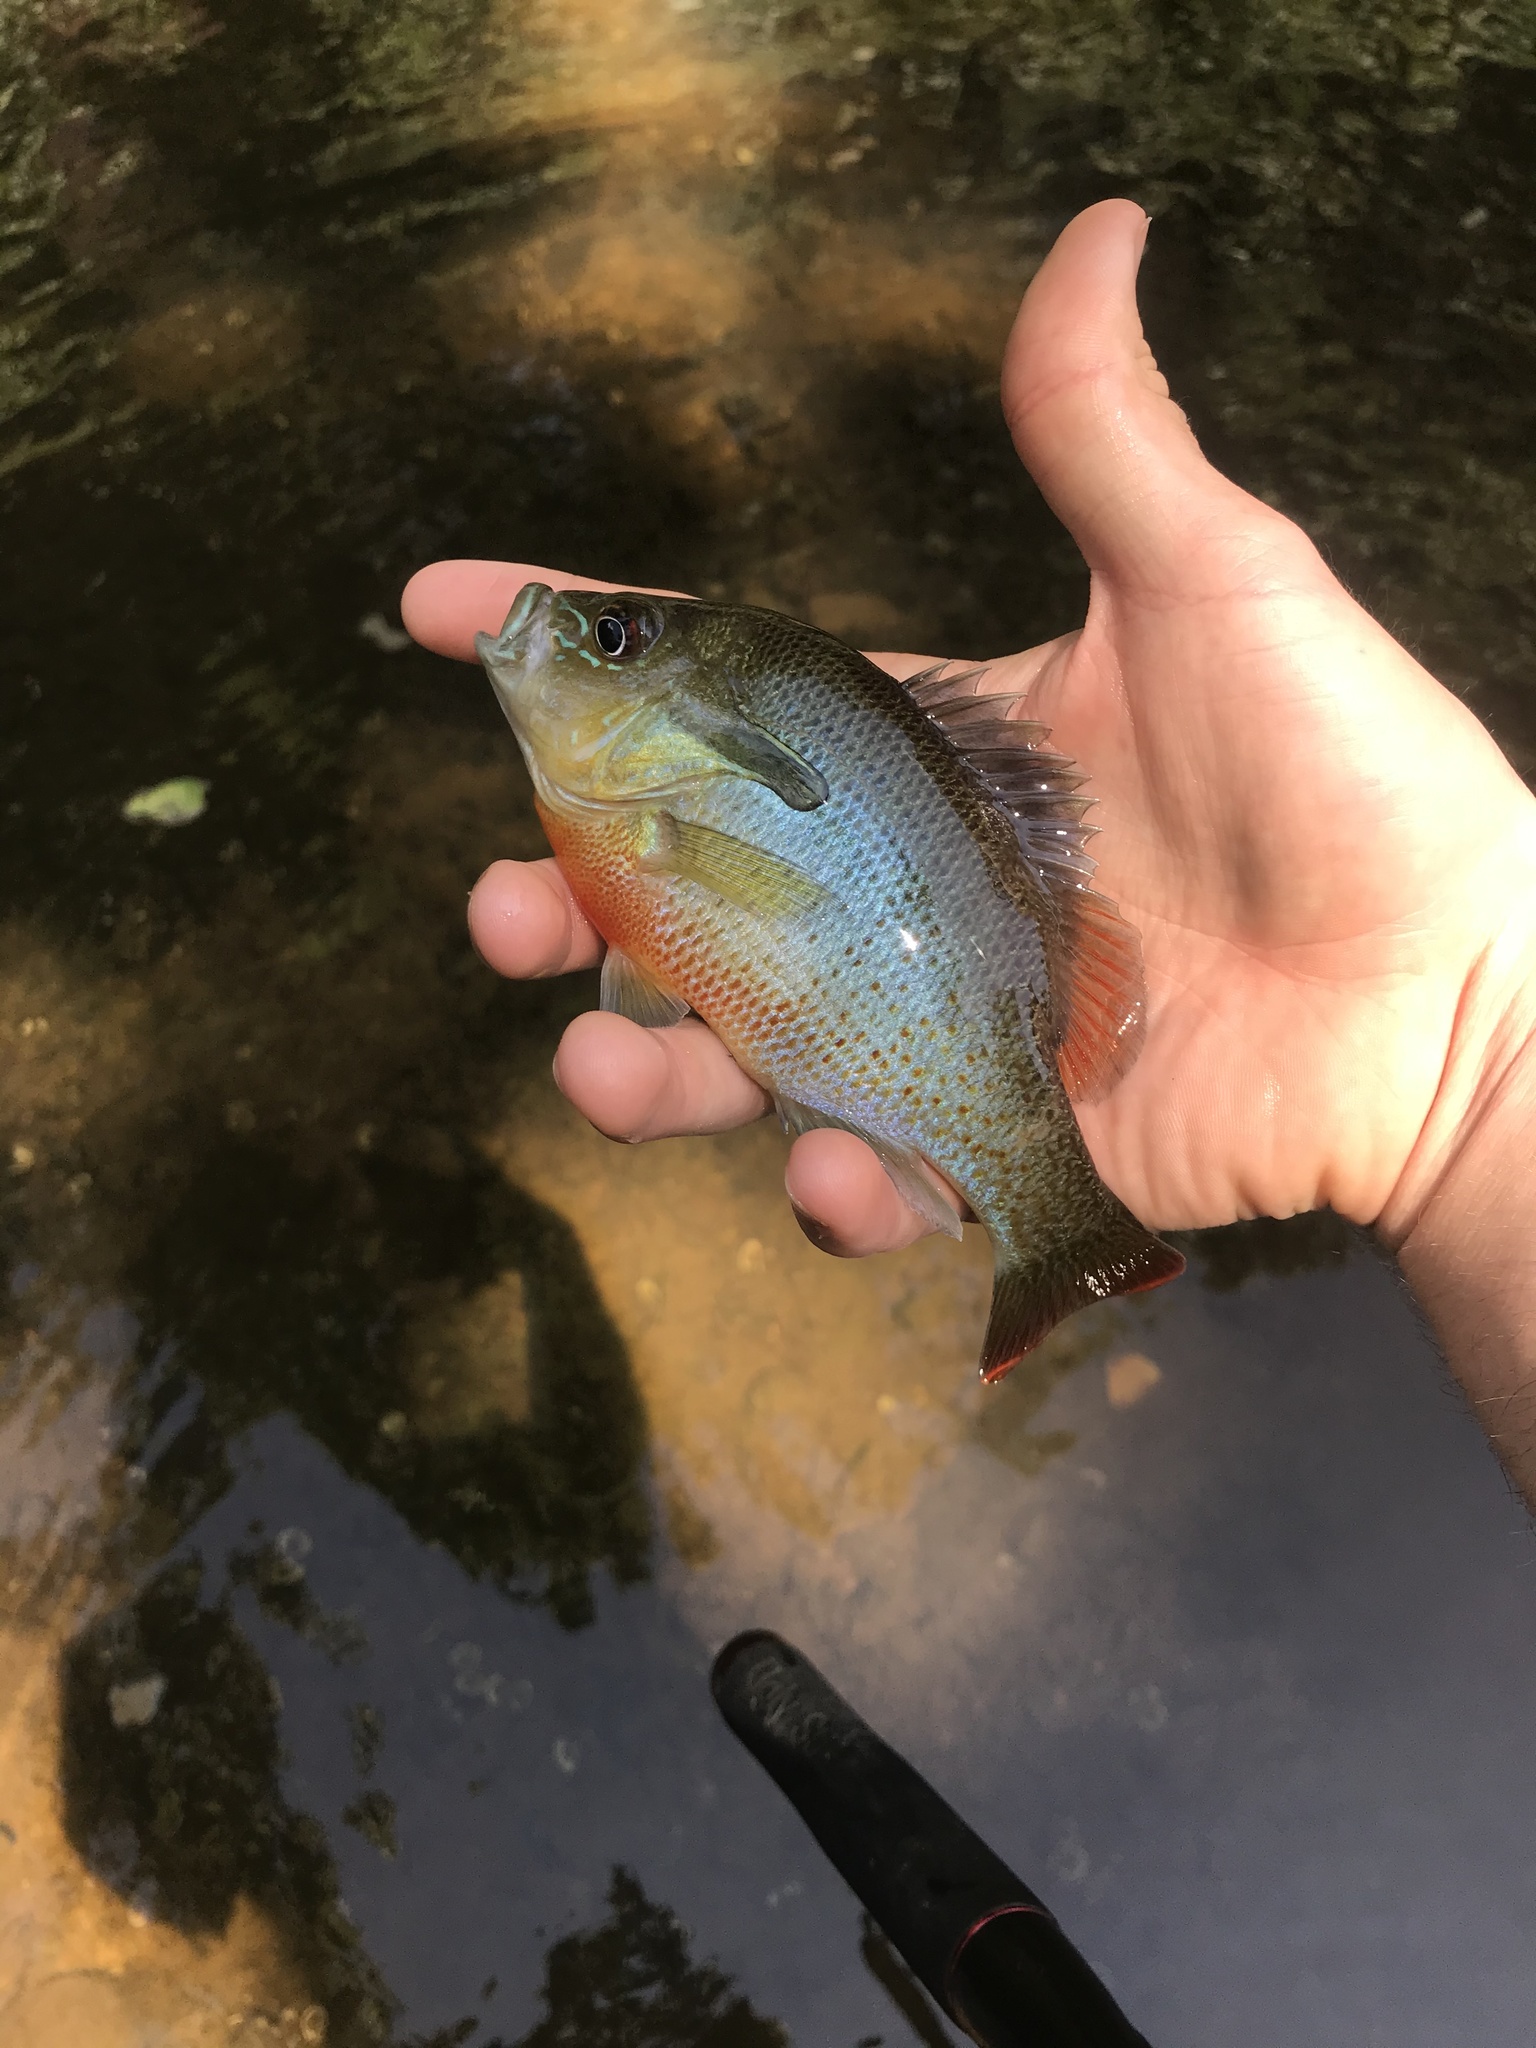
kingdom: Animalia
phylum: Chordata
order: Perciformes
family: Centrarchidae
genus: Lepomis
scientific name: Lepomis auritus
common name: Redbreast sunfish
